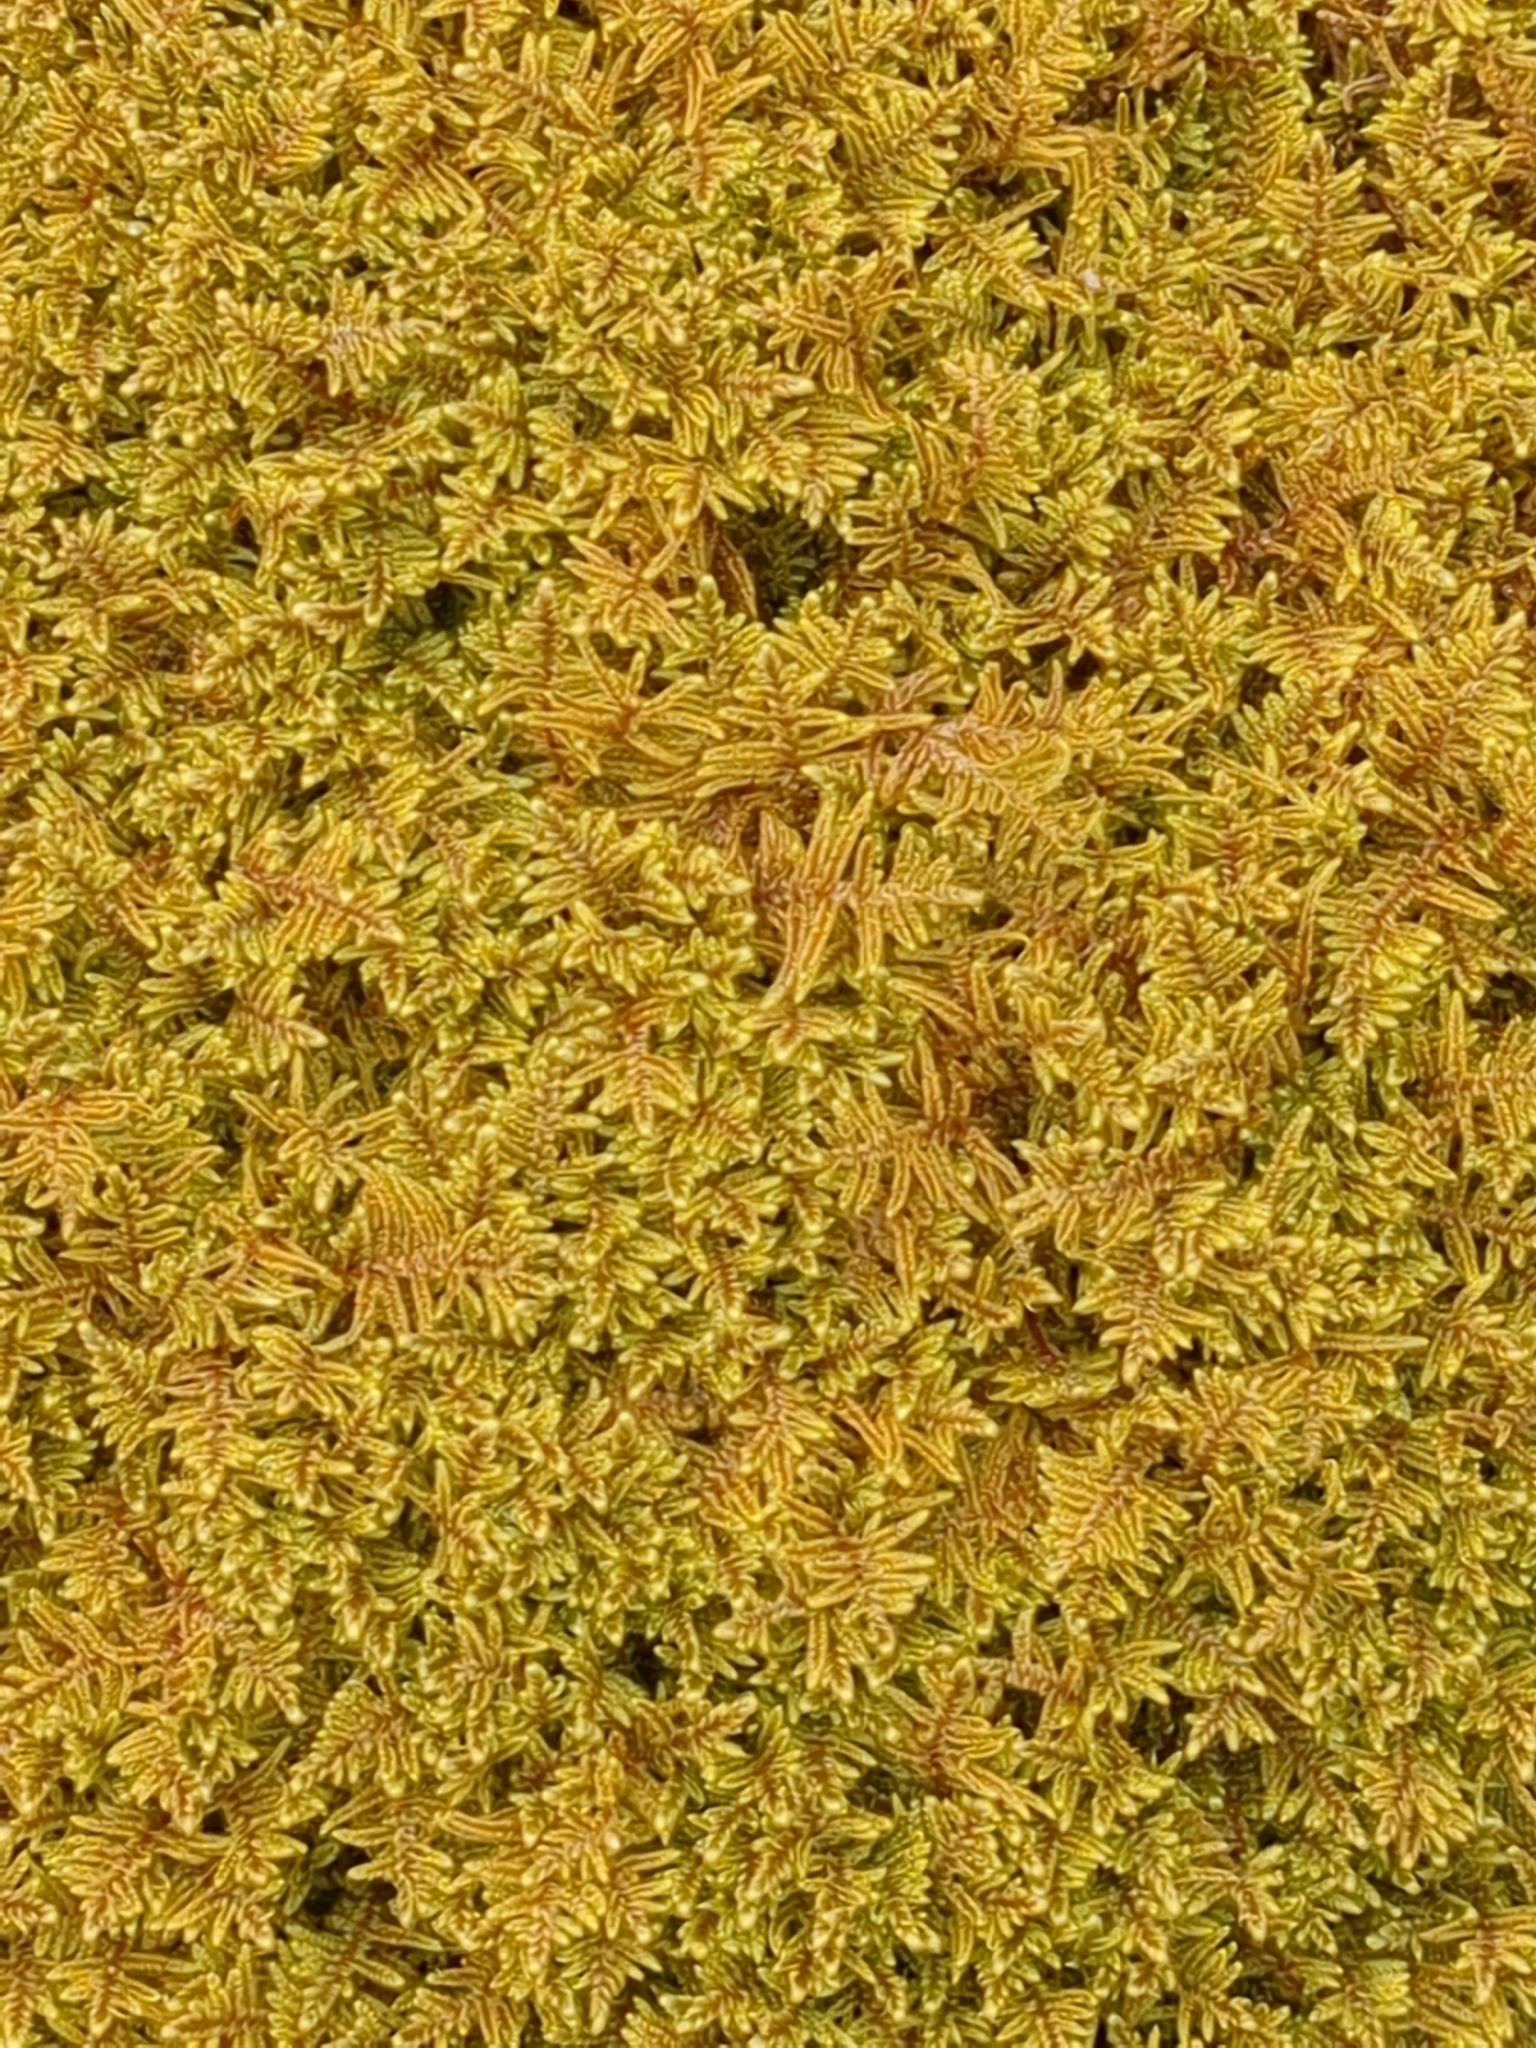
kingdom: Plantae
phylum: Bryophyta
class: Bryopsida
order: Hypnales
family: Callicladiaceae
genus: Callicladium
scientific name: Callicladium imponens
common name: Brocade moss
